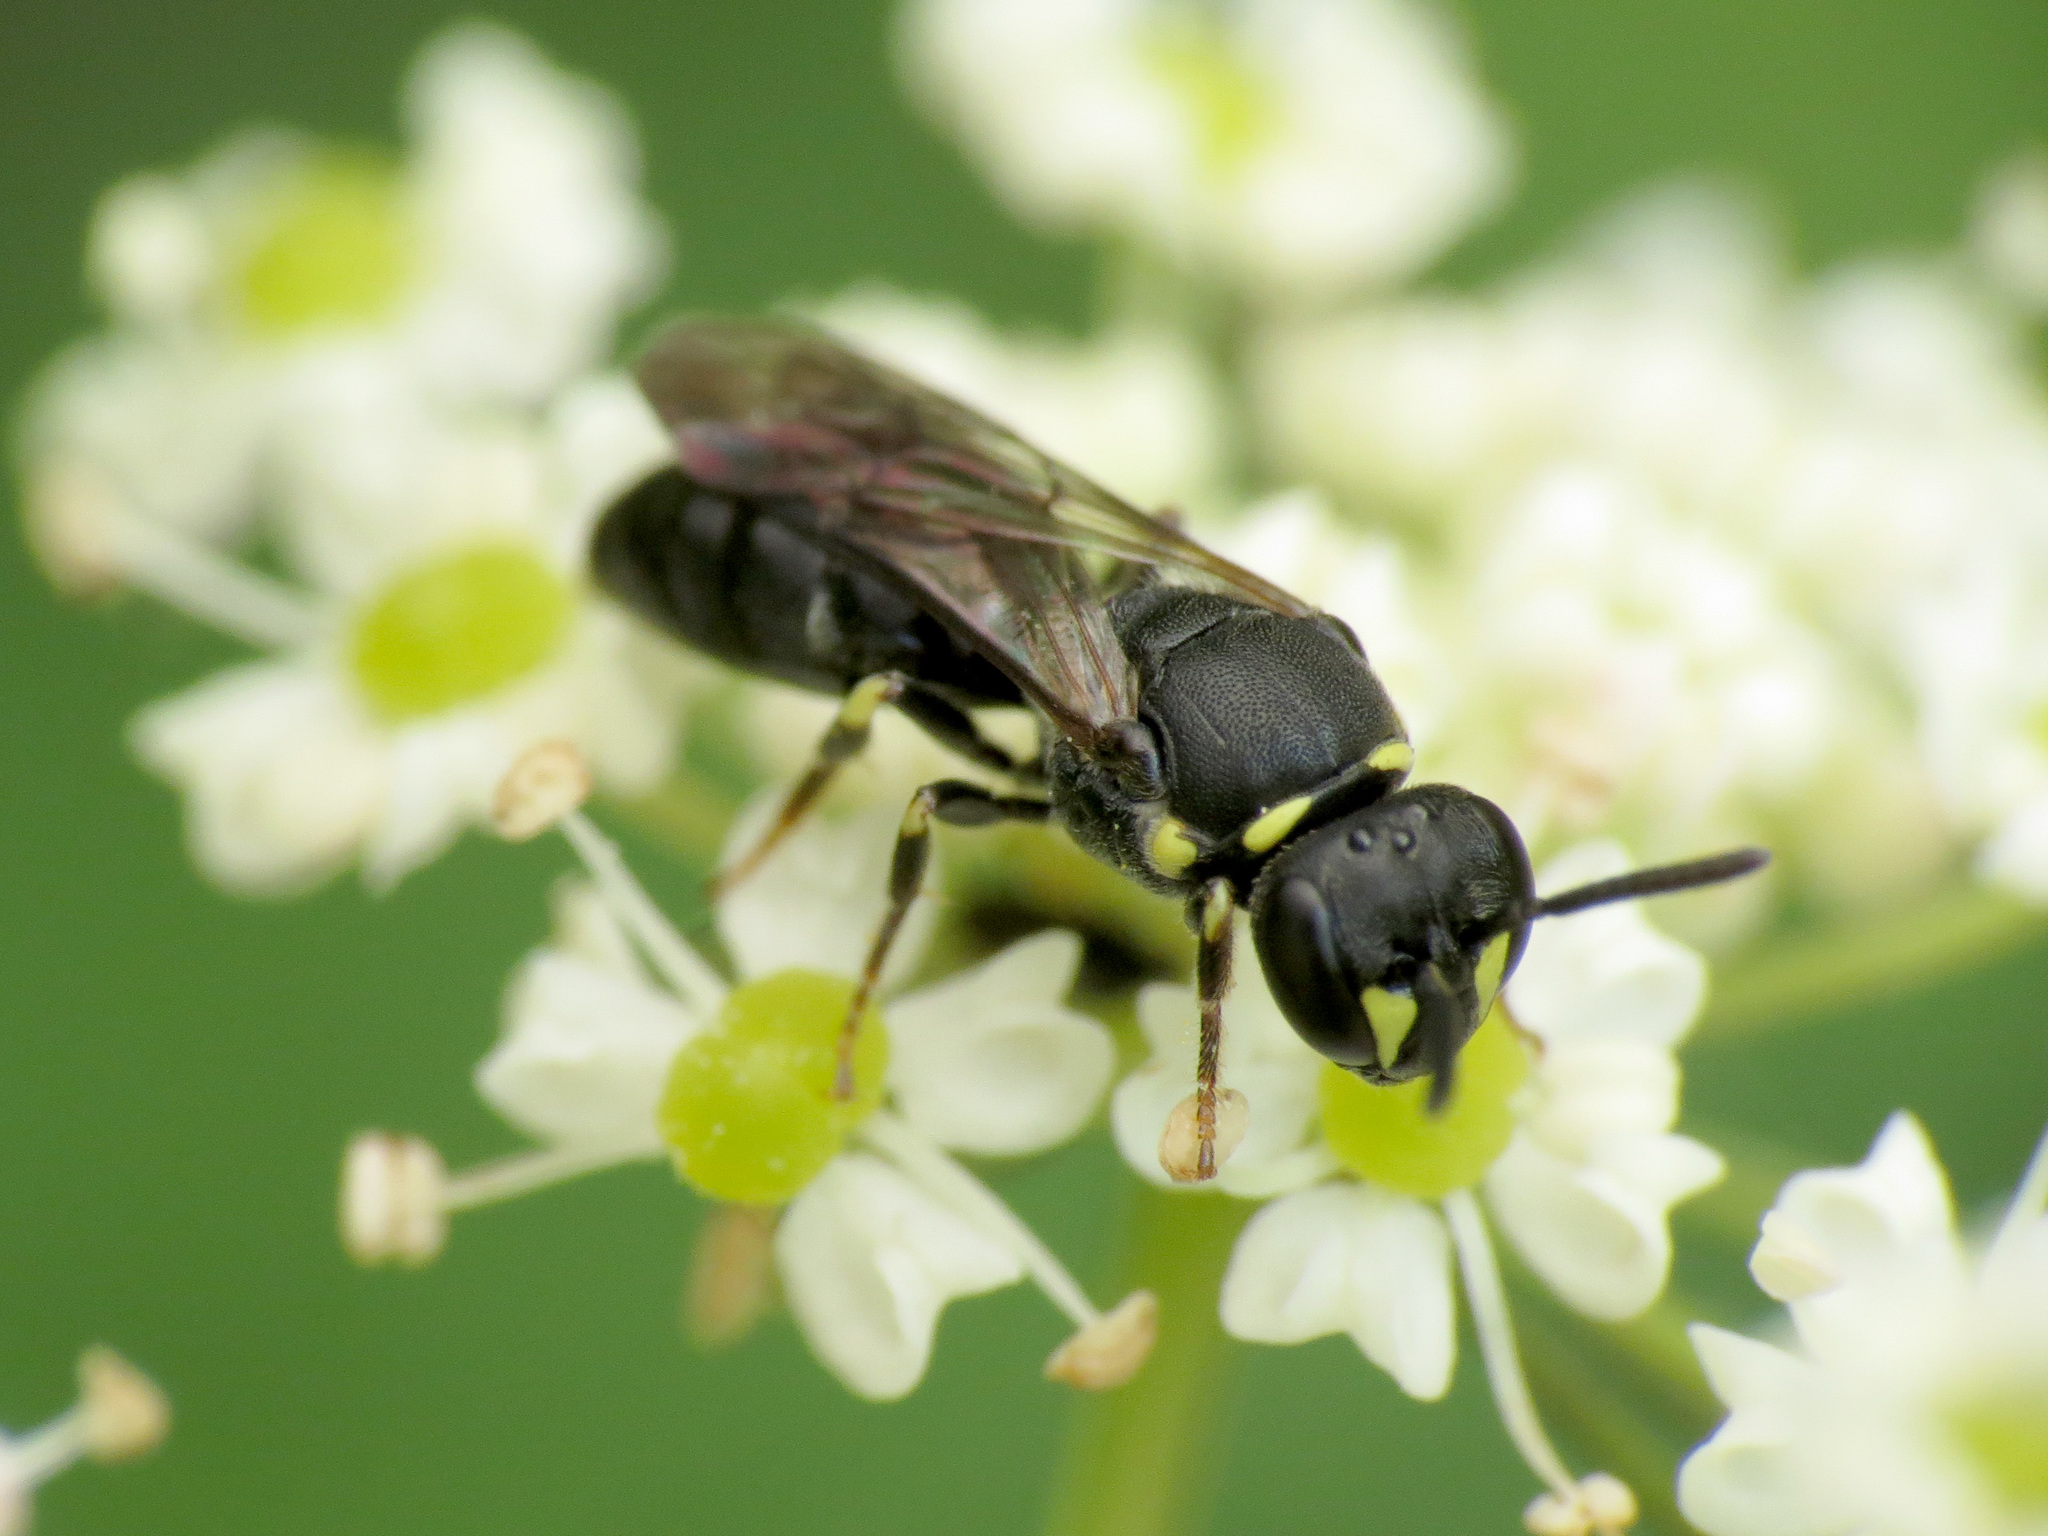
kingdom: Animalia
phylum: Arthropoda
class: Insecta
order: Hymenoptera
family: Colletidae
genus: Hylaeus
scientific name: Hylaeus modestus
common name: Yellow-faced bee
